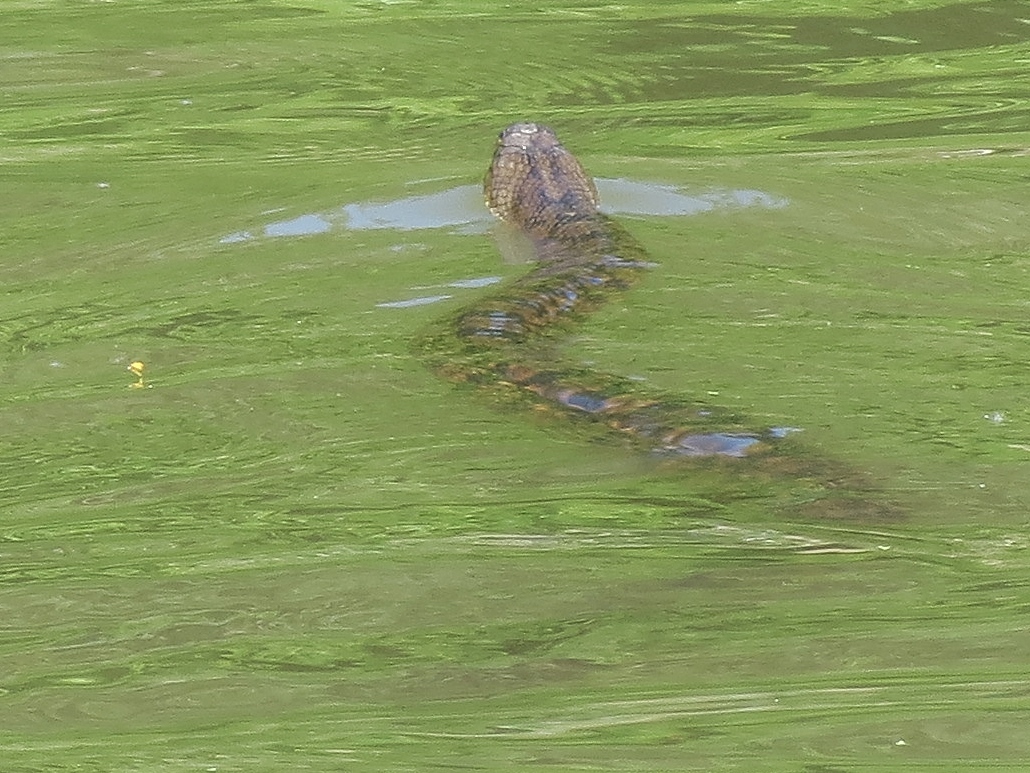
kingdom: Animalia
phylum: Chordata
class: Squamata
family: Colubridae
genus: Nerodia
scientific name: Nerodia rhombifer
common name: Diamondback water snake
